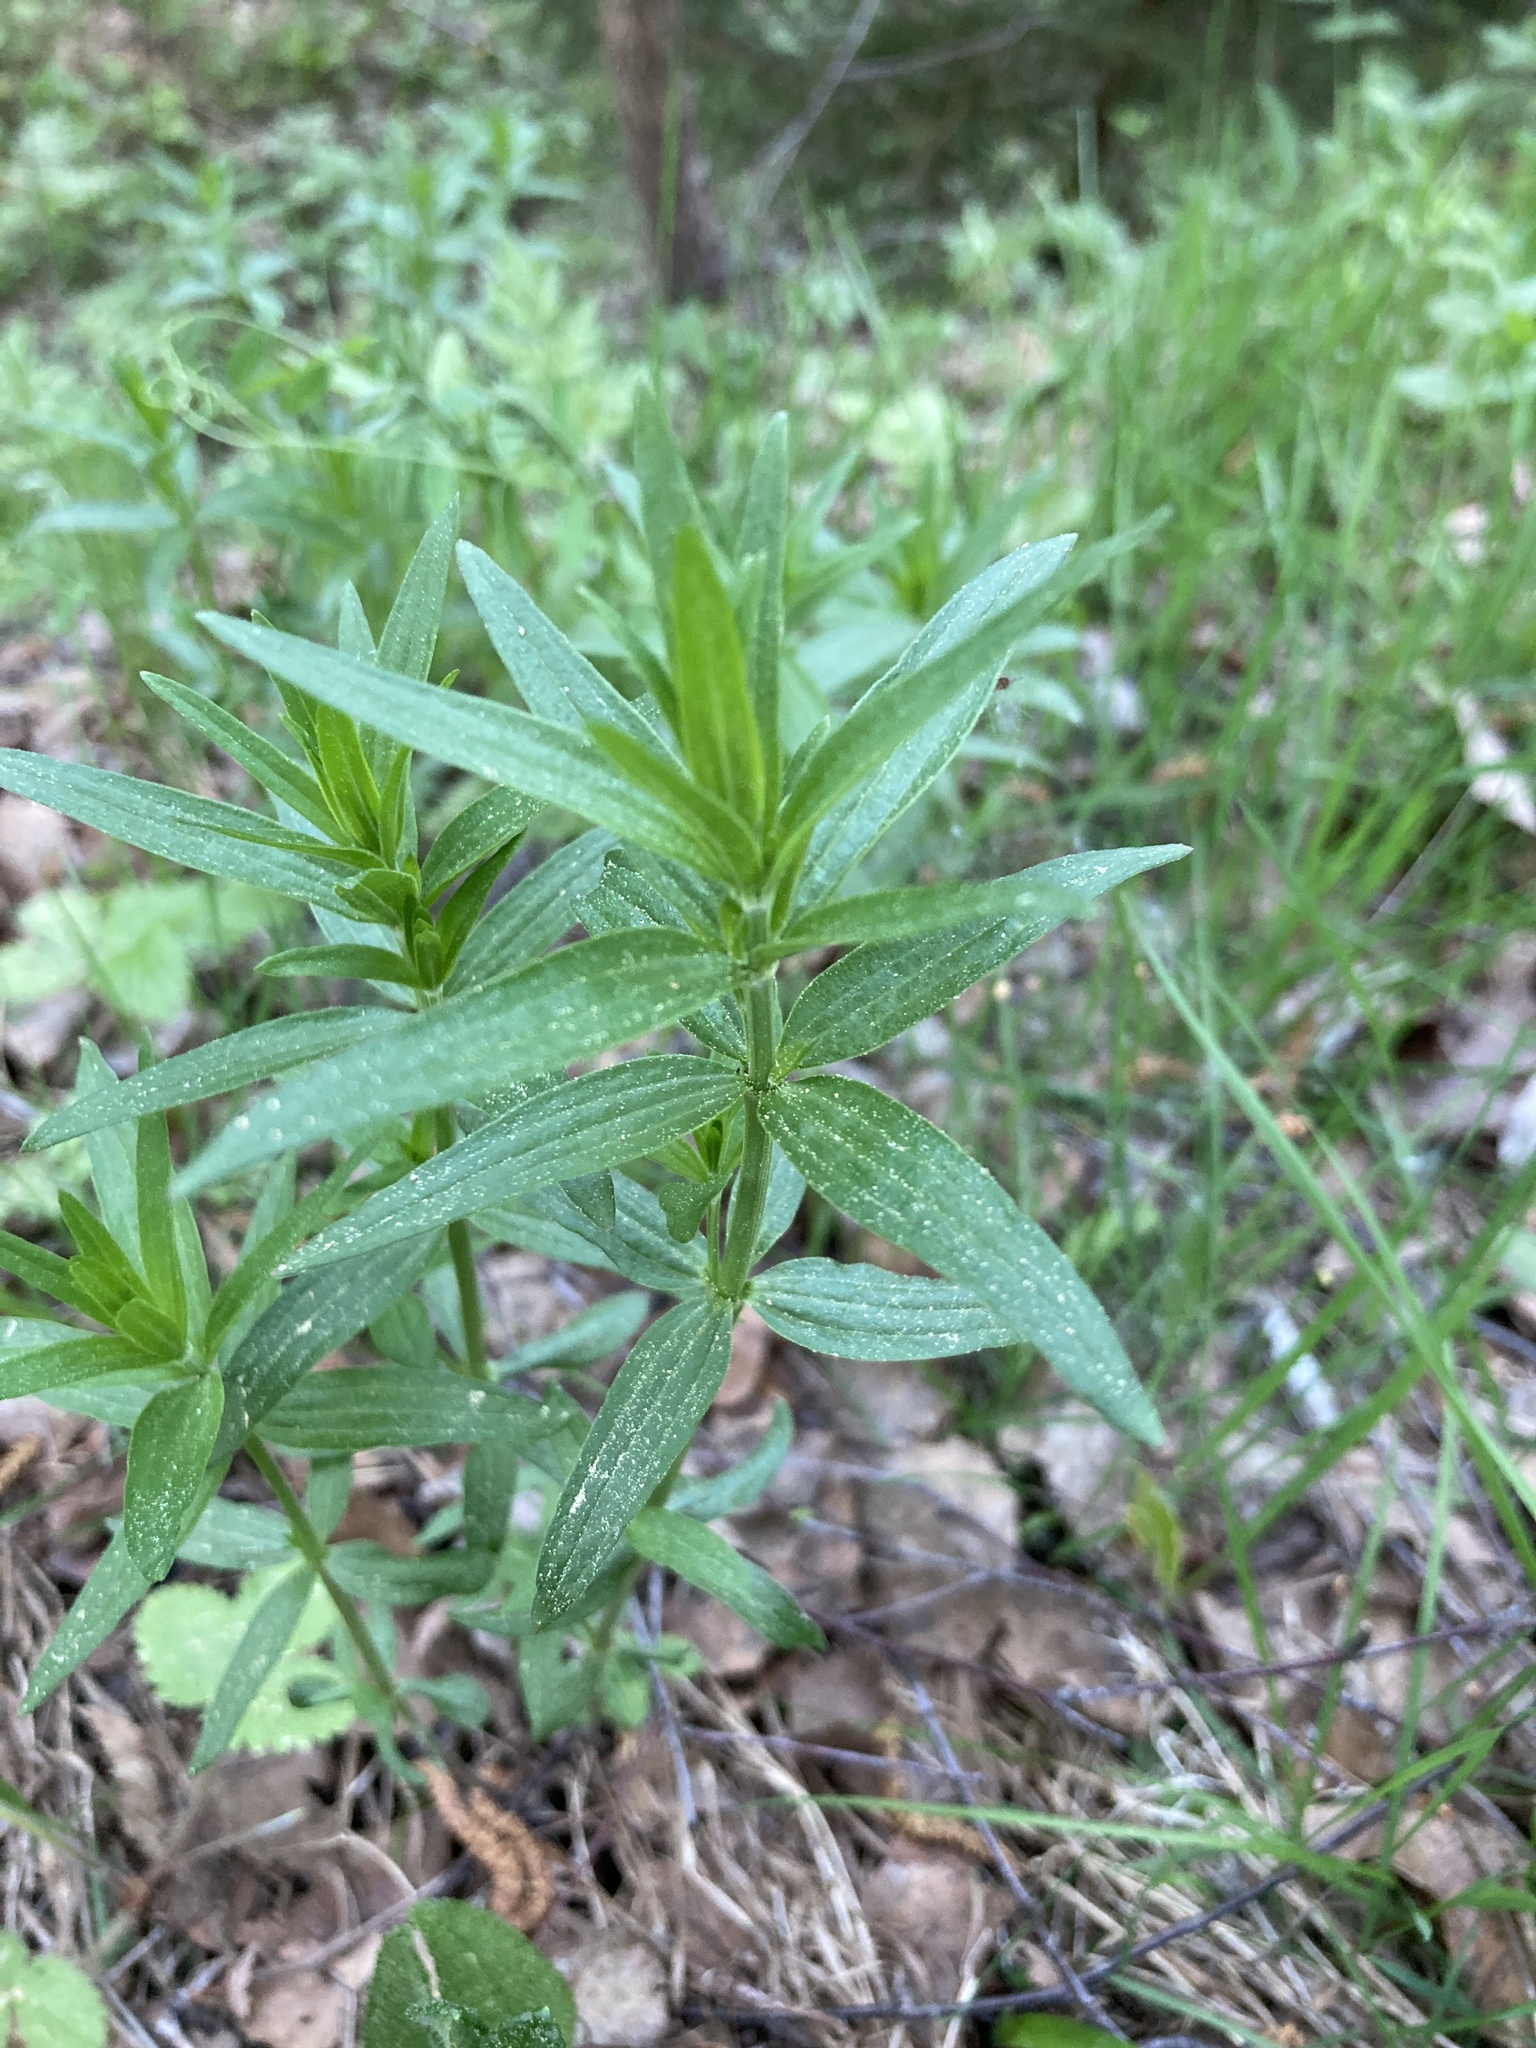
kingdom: Plantae
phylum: Tracheophyta
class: Magnoliopsida
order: Gentianales
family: Rubiaceae
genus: Galium
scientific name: Galium boreale
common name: Northern bedstraw
